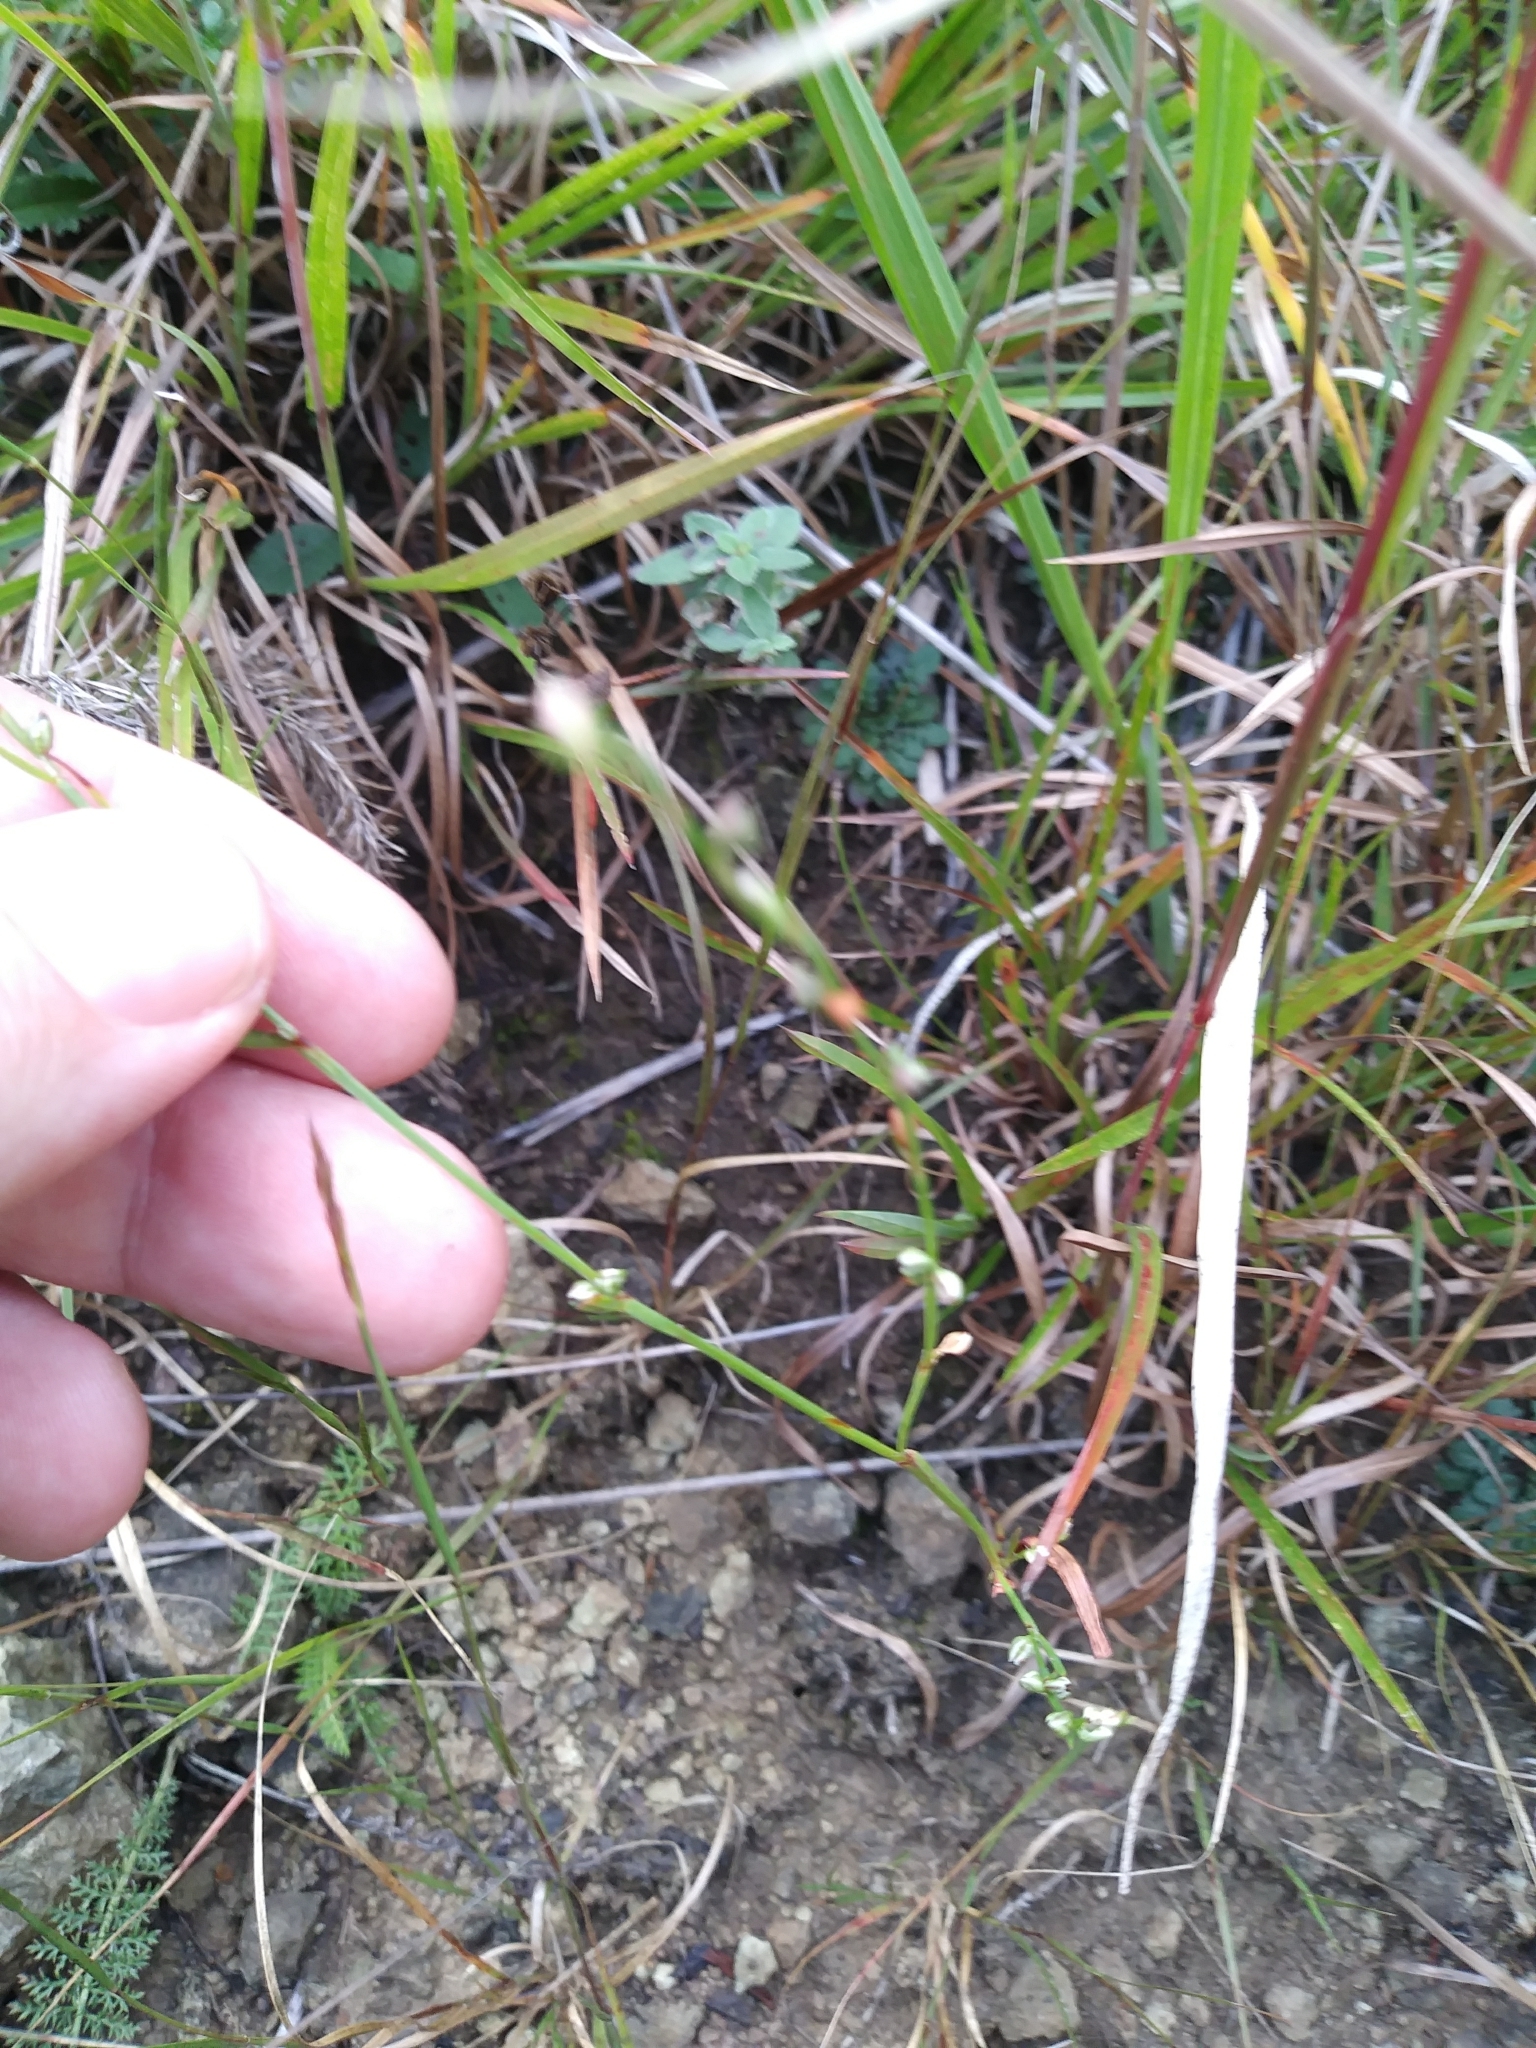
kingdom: Plantae
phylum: Tracheophyta
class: Magnoliopsida
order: Caryophyllales
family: Polygonaceae
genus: Polygonum
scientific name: Polygonum tenue
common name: Pleat-leaved knotweed
